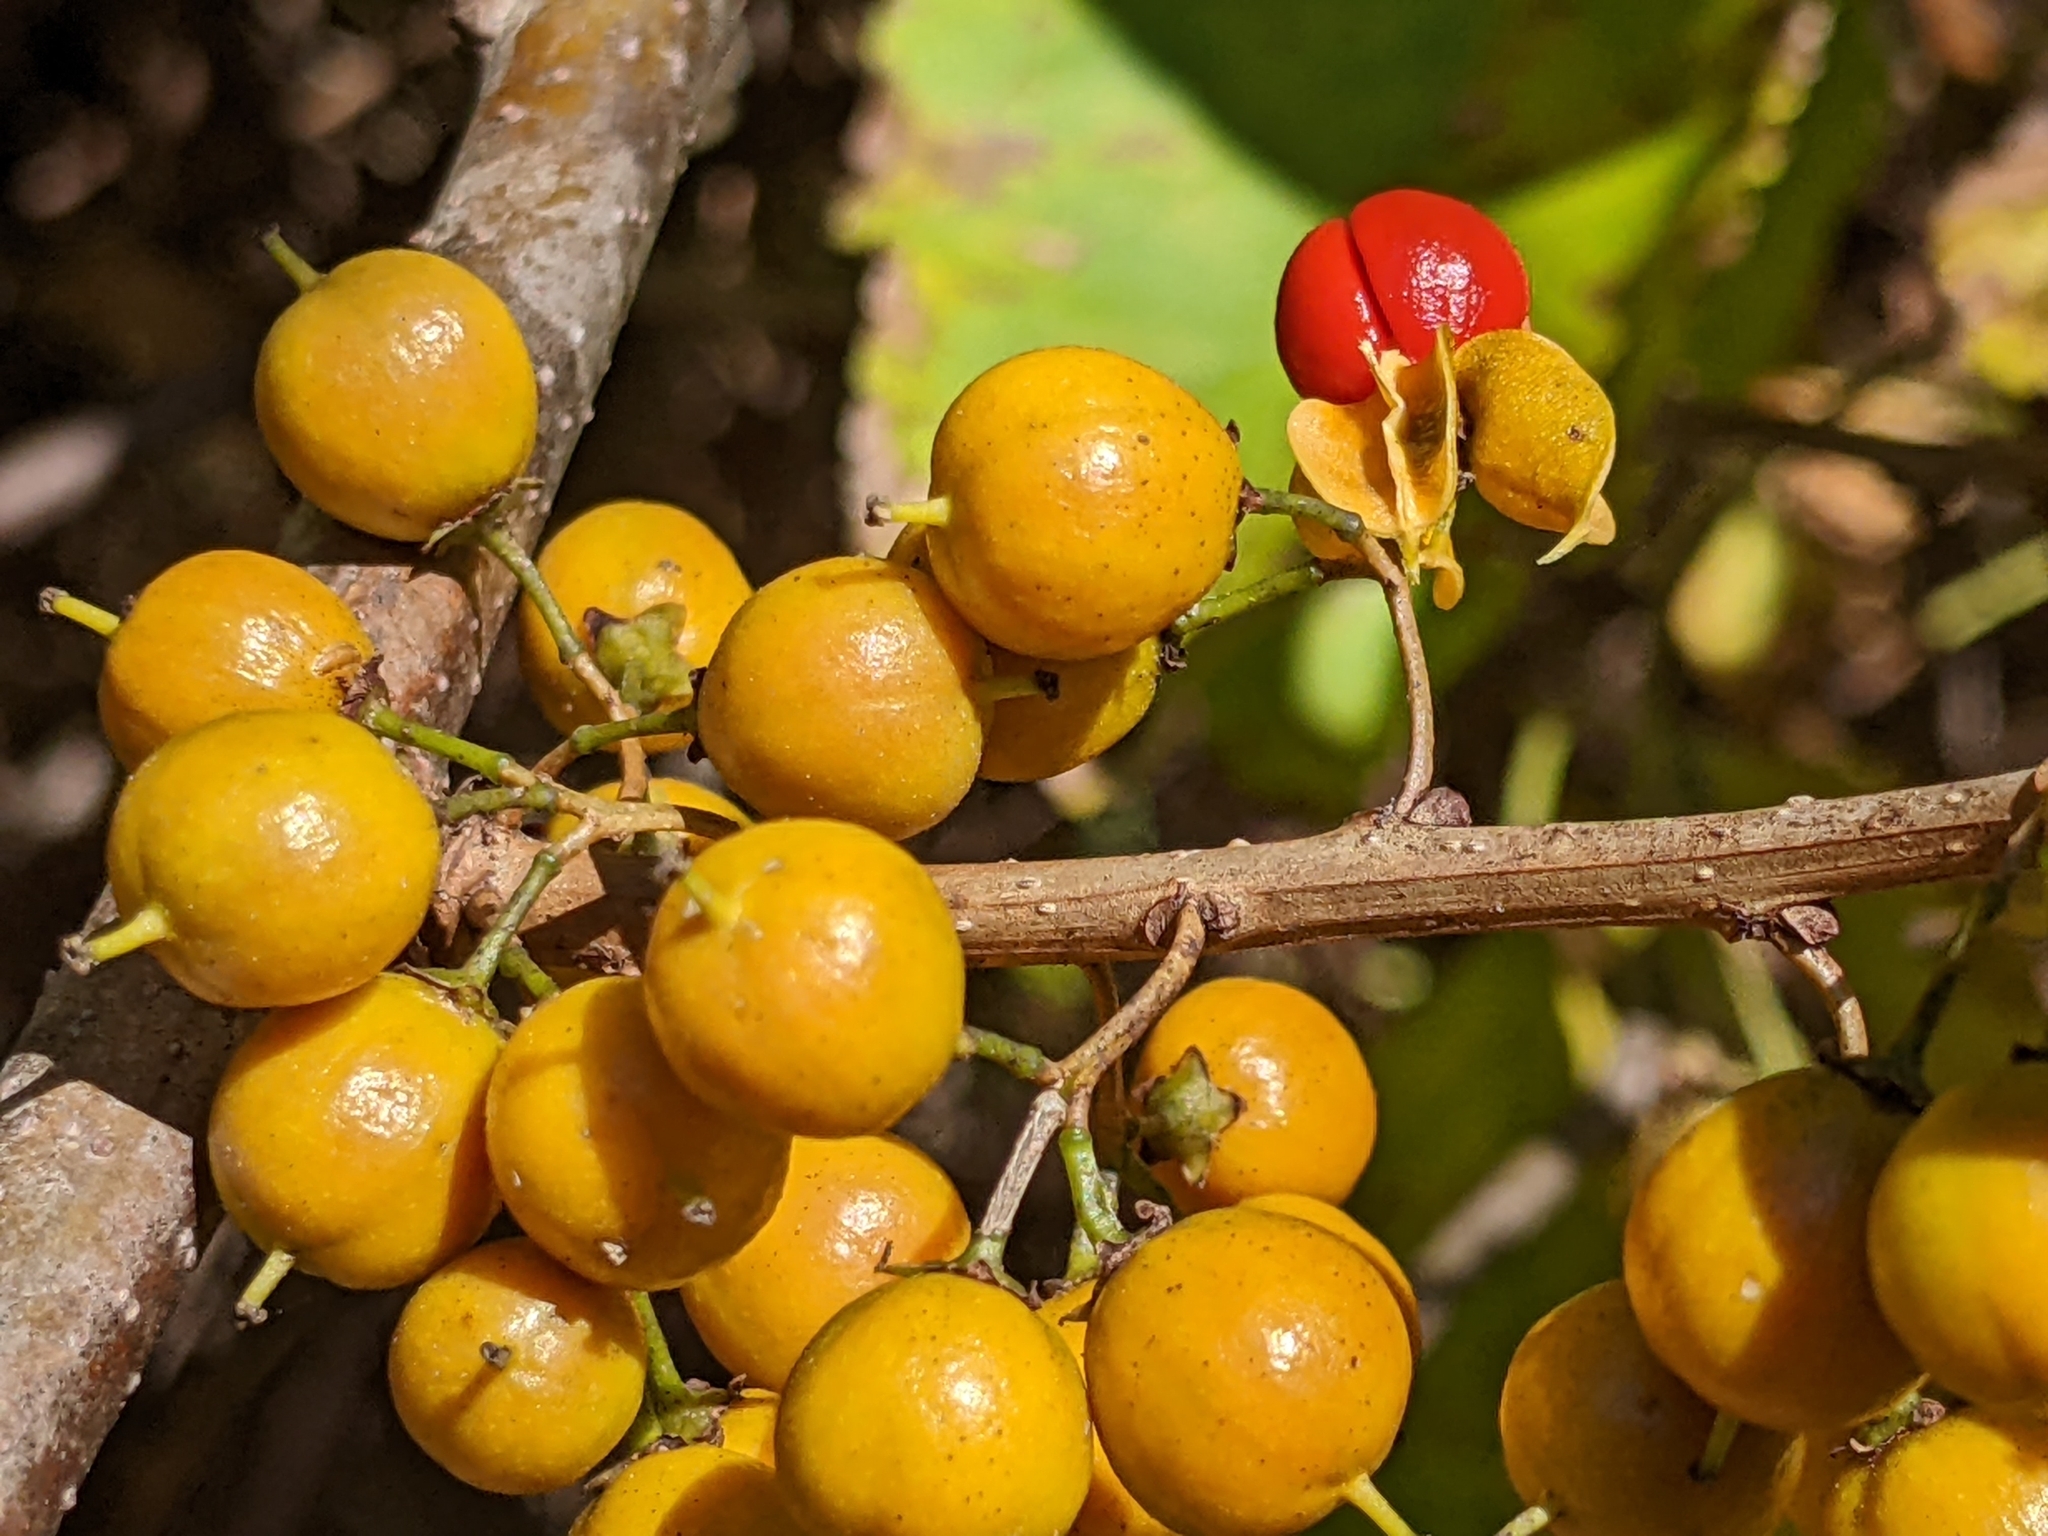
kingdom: Plantae
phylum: Tracheophyta
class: Magnoliopsida
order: Celastrales
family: Celastraceae
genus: Celastrus
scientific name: Celastrus orbiculatus
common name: Oriental bittersweet
